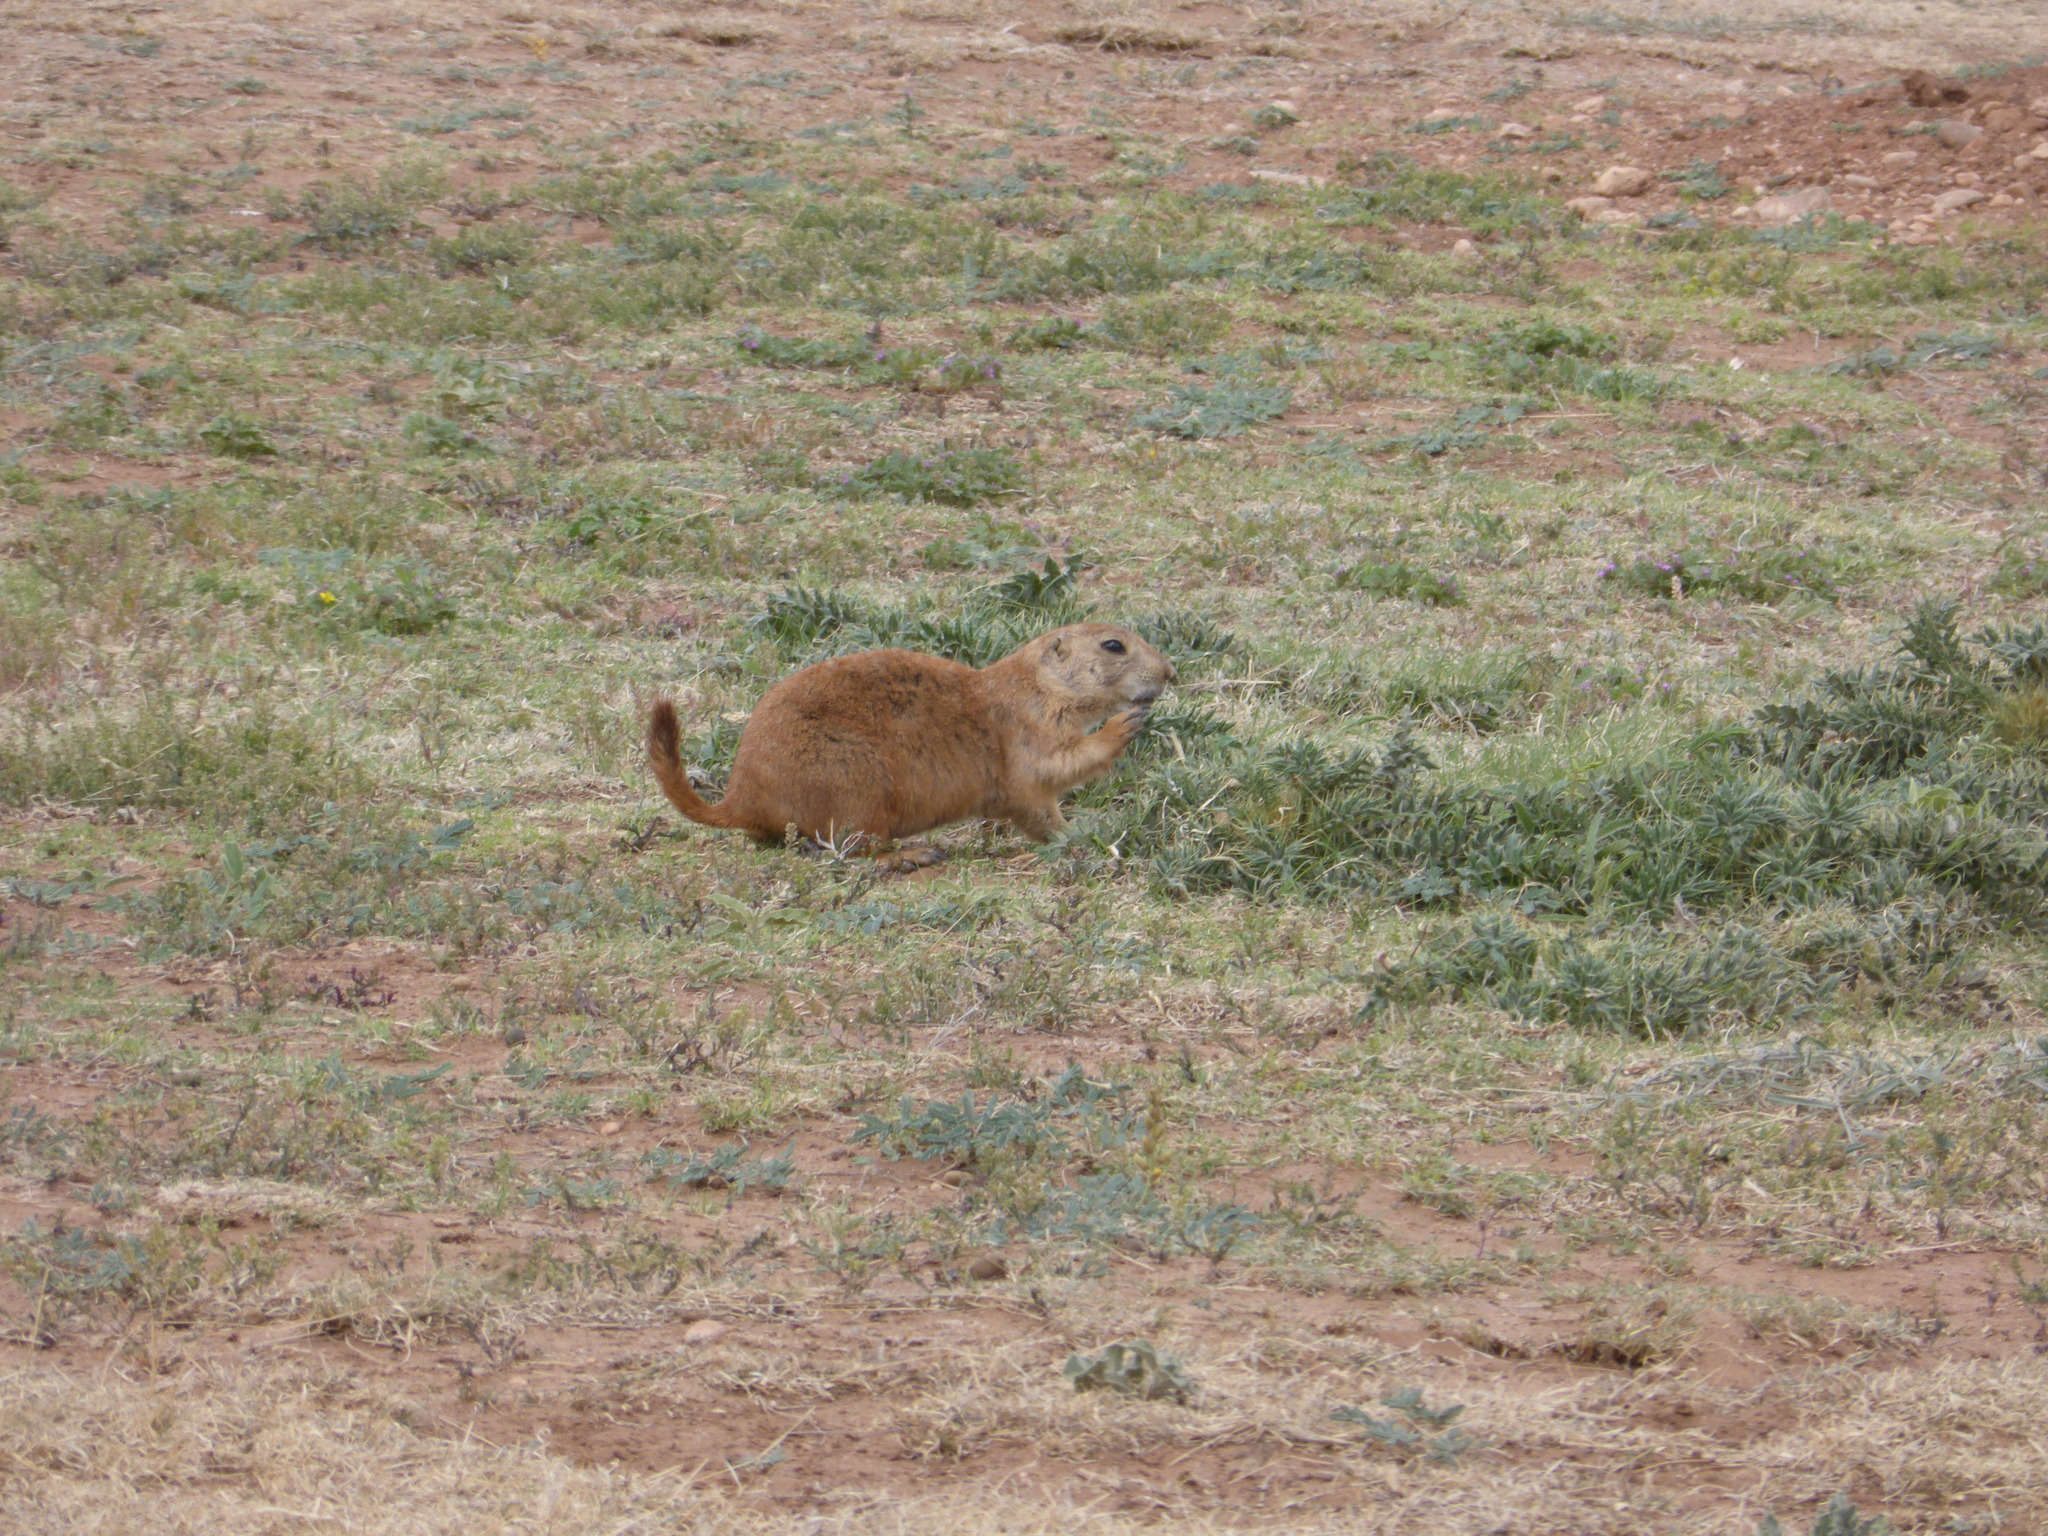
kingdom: Animalia
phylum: Chordata
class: Mammalia
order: Rodentia
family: Sciuridae
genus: Cynomys
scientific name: Cynomys ludovicianus
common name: Black-tailed prairie dog
